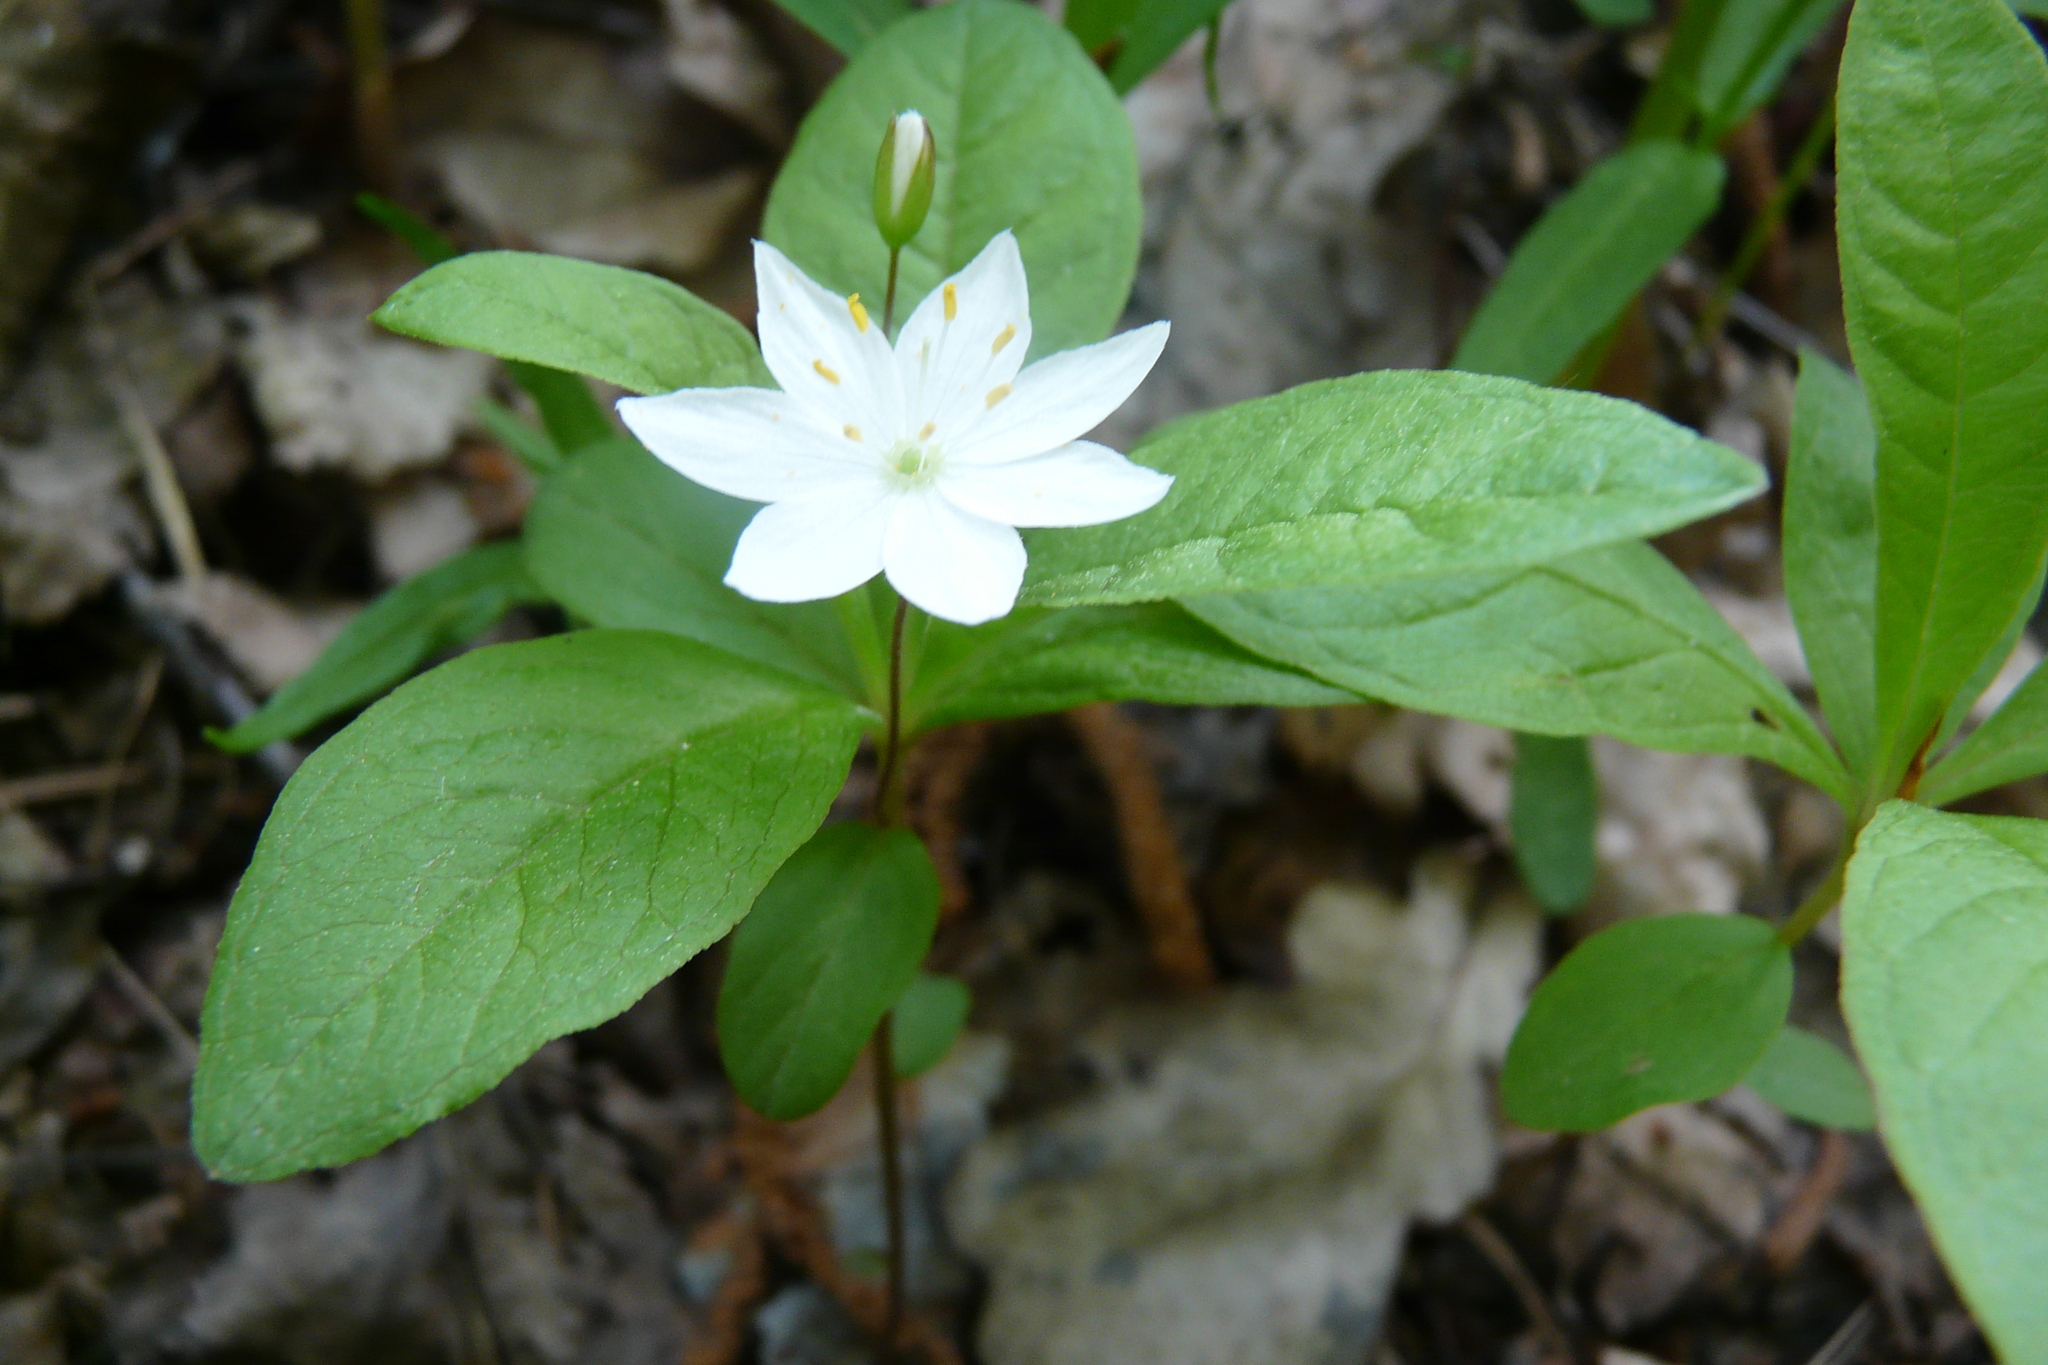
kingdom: Plantae
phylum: Tracheophyta
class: Magnoliopsida
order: Ericales
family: Primulaceae
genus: Lysimachia
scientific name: Lysimachia europaea
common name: Arctic starflower
